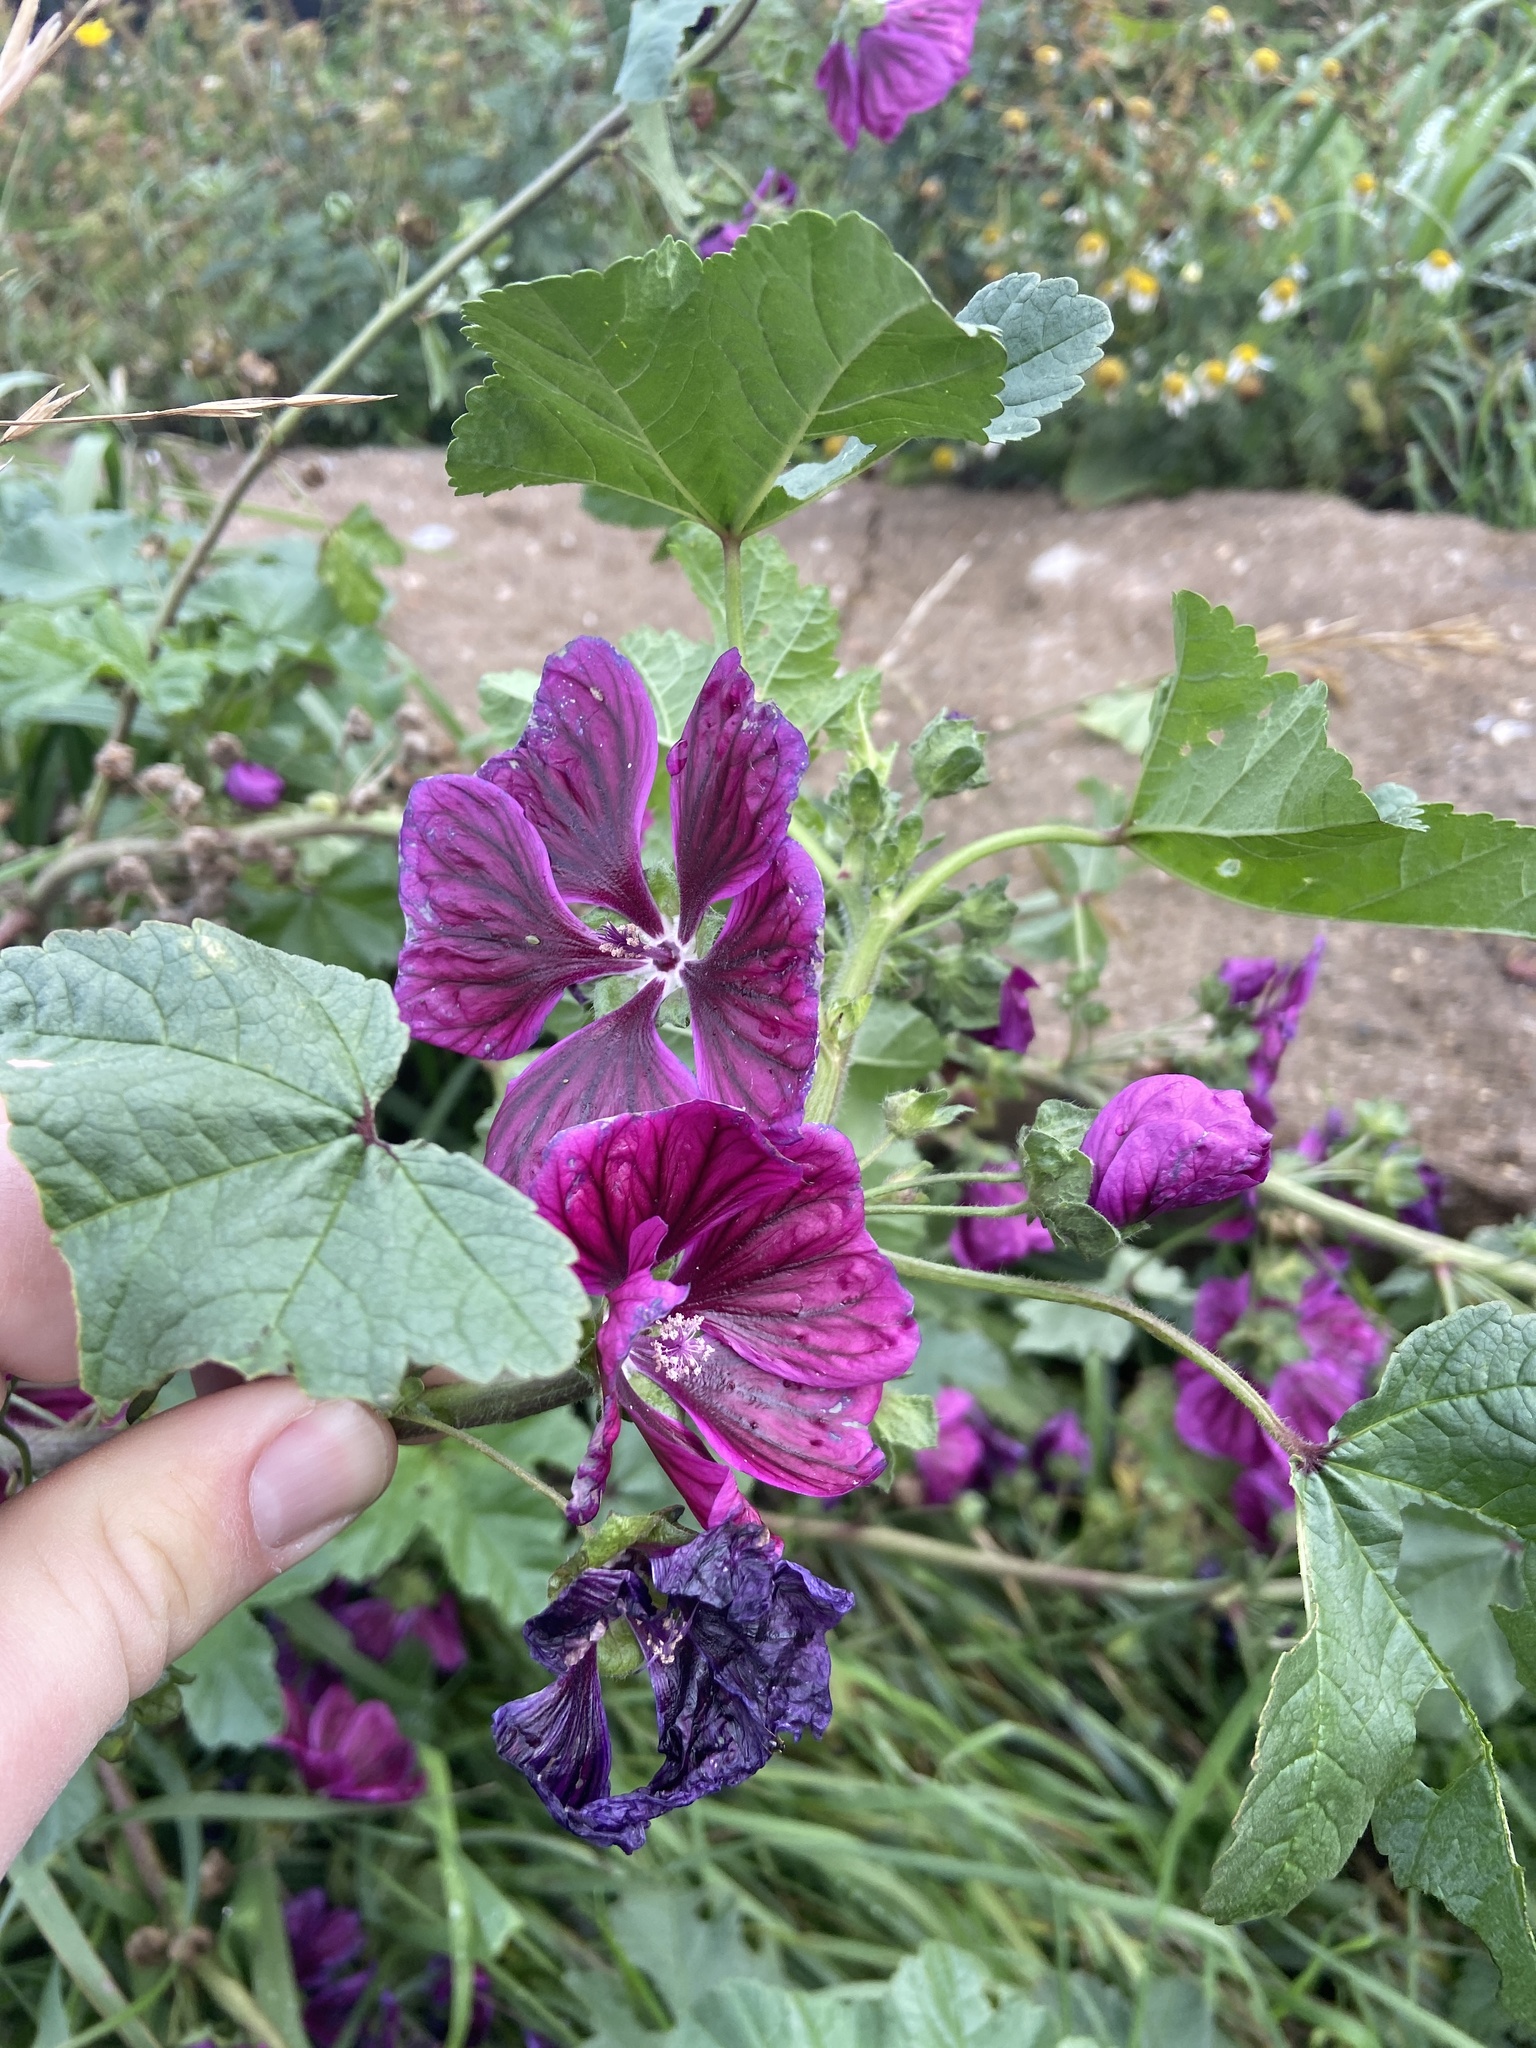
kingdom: Plantae
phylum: Tracheophyta
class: Magnoliopsida
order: Malvales
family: Malvaceae
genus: Malva
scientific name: Malva sylvestris
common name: Common mallow
